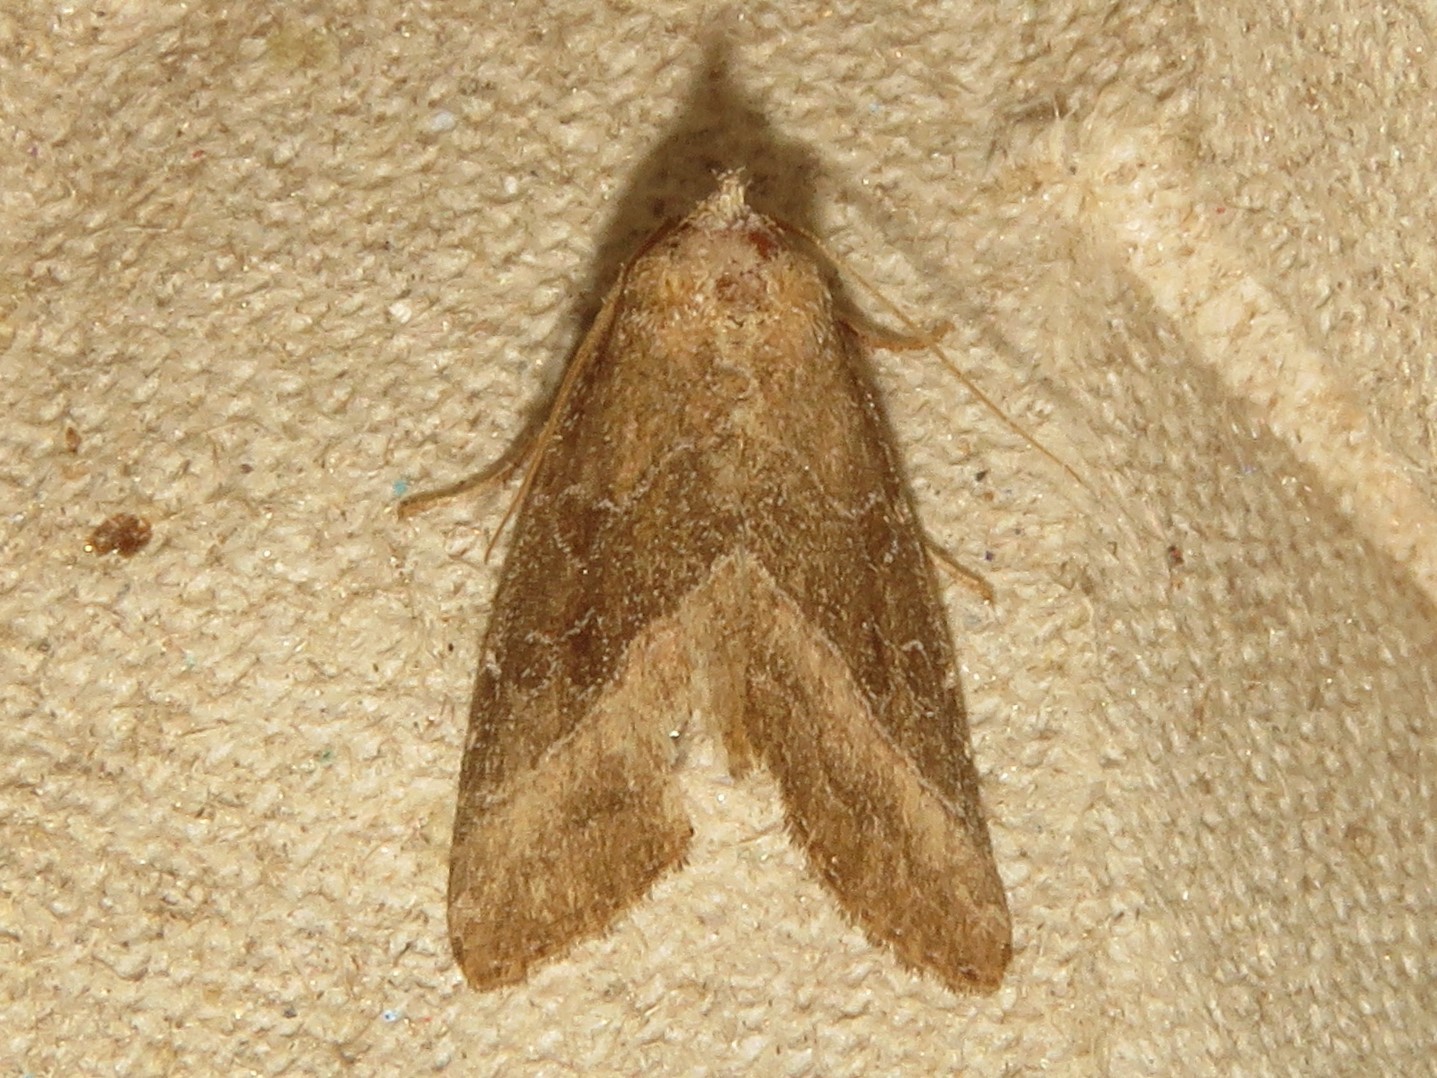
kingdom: Animalia
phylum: Arthropoda
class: Insecta
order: Lepidoptera
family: Noctuidae
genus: Ogdoconta
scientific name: Ogdoconta cinereola
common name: Common pinkband
